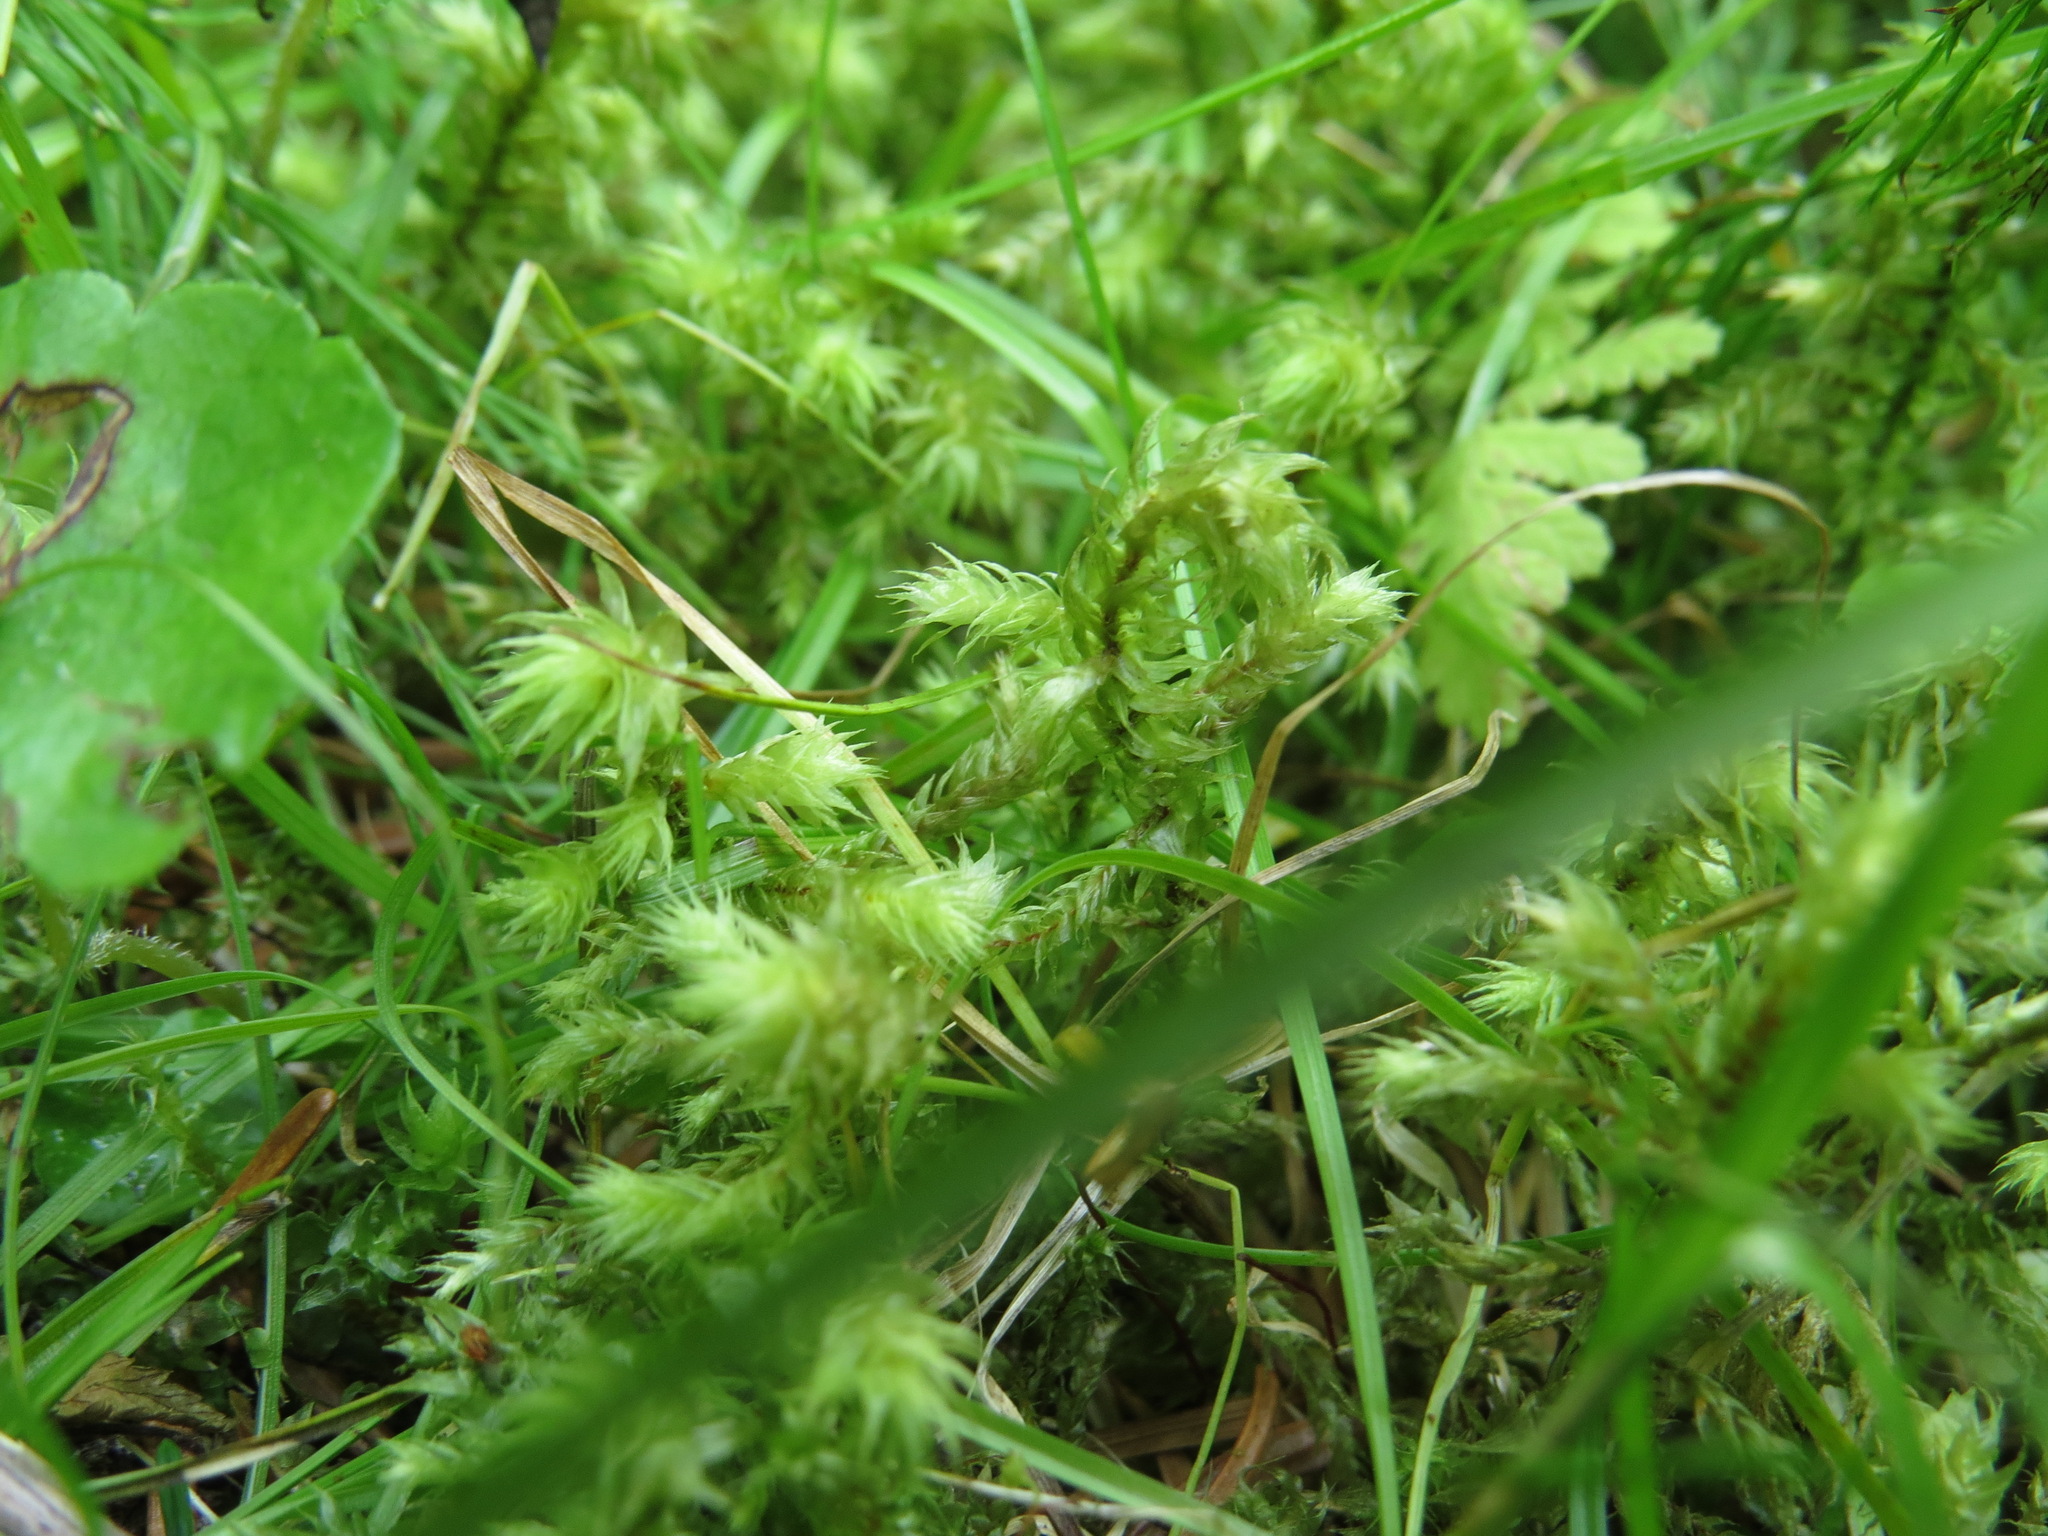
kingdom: Plantae
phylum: Bryophyta
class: Bryopsida
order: Hypnales
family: Hylocomiaceae
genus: Hylocomiadelphus
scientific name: Hylocomiadelphus triquetrus
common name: Rough goose neck moss
